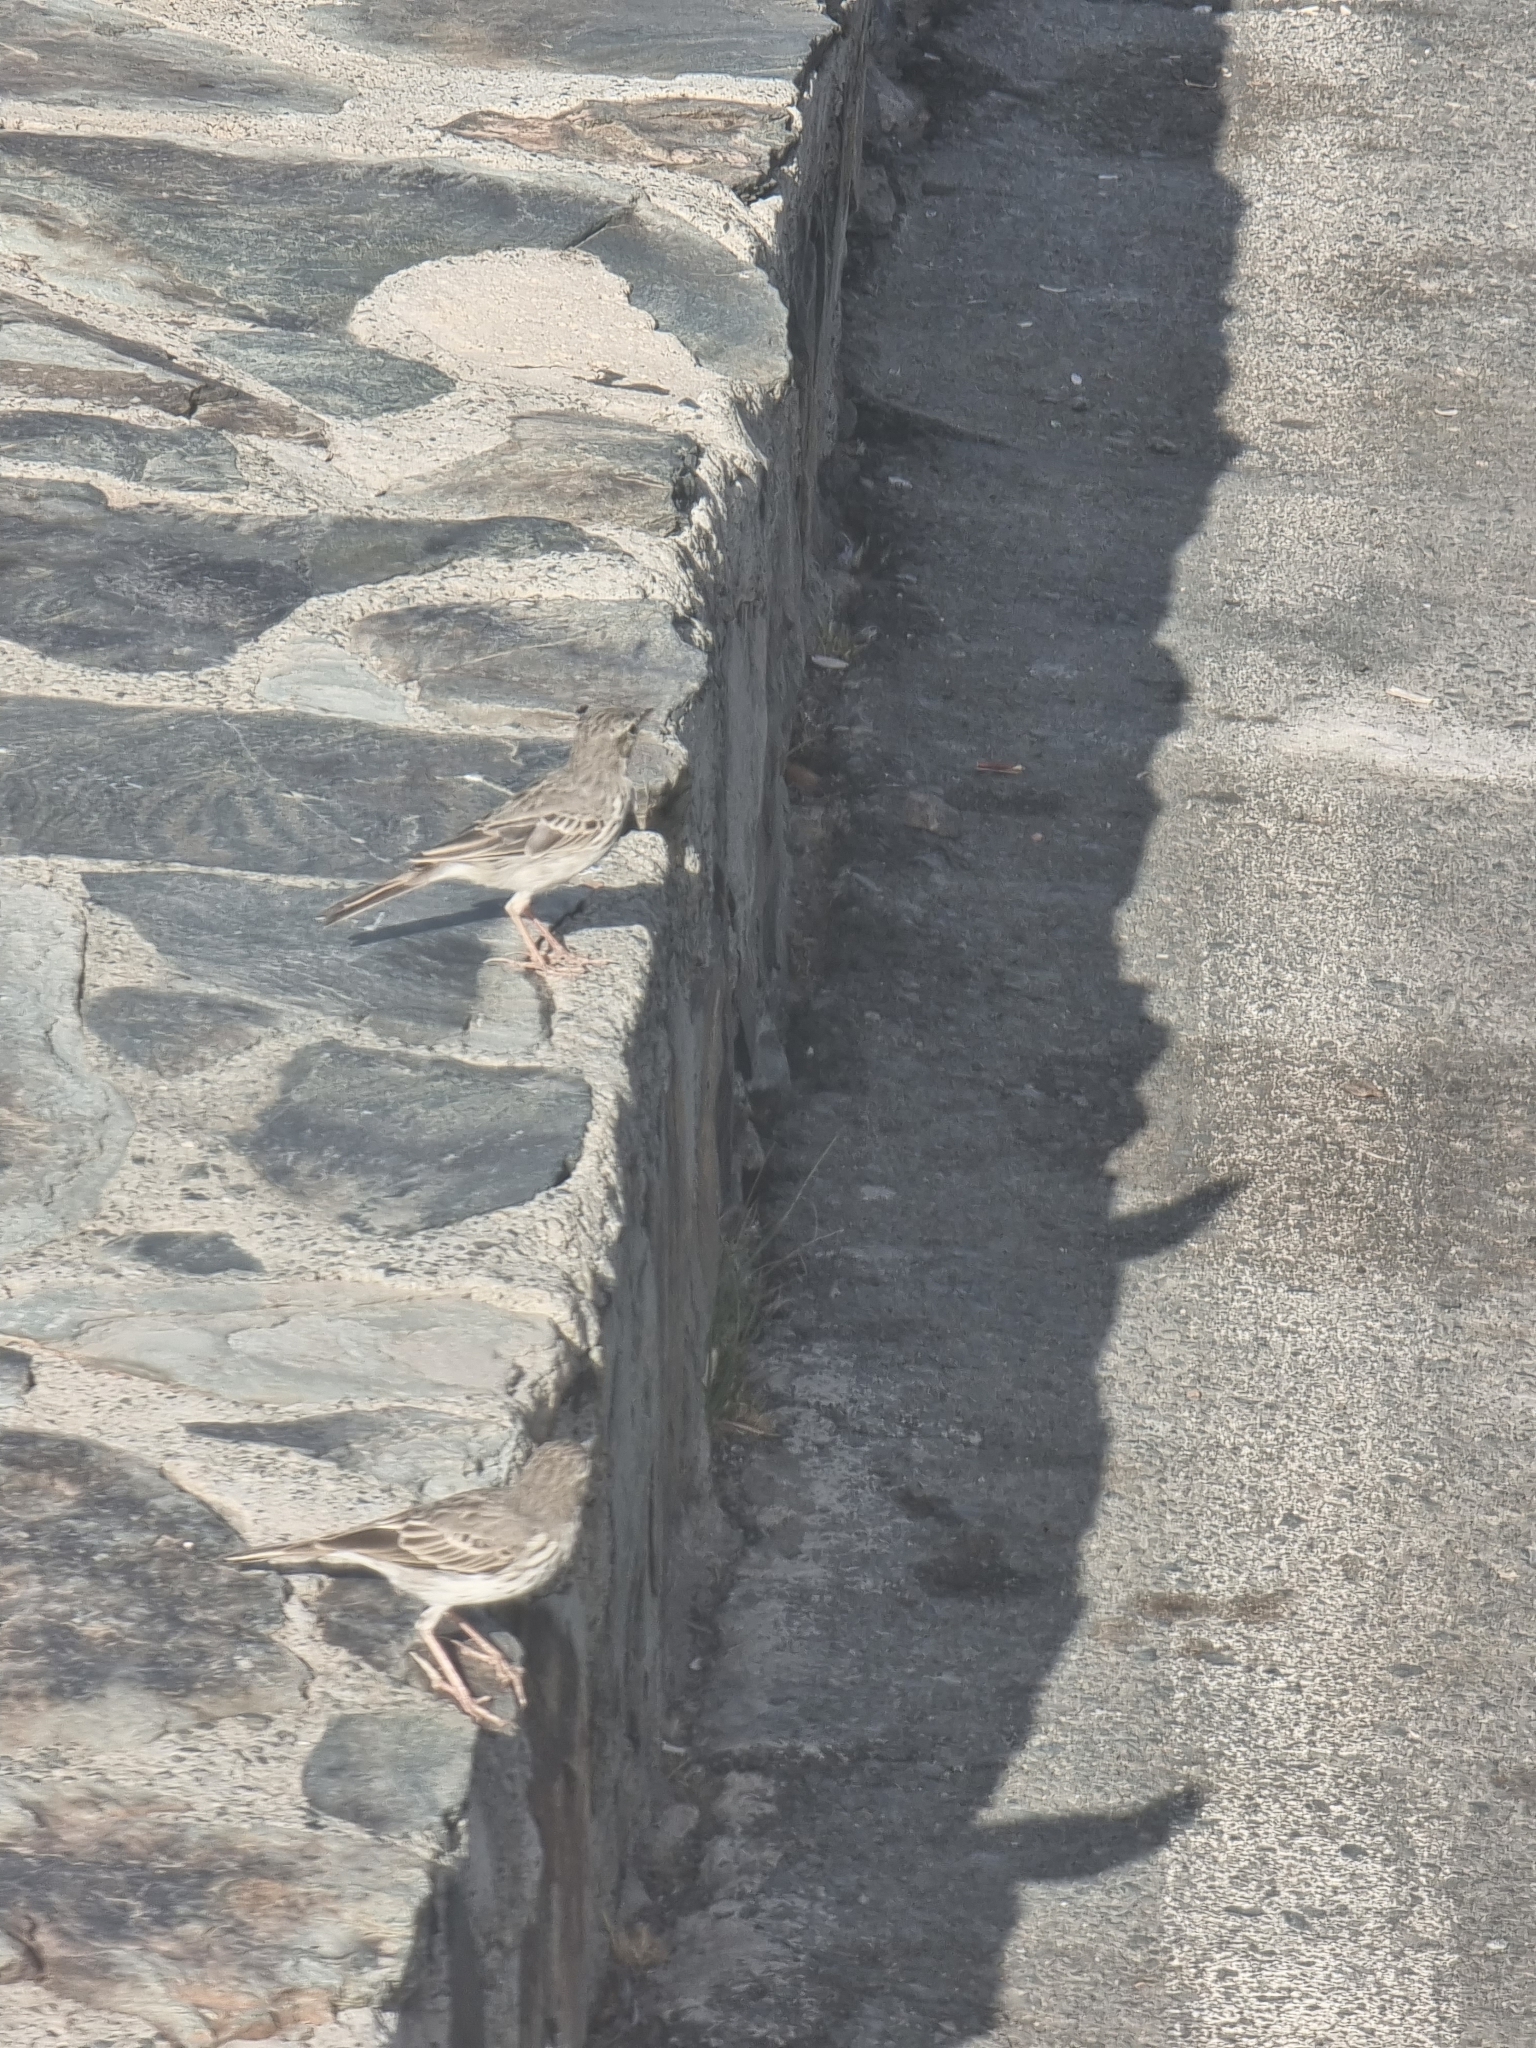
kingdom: Animalia
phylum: Chordata
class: Aves
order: Passeriformes
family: Motacillidae
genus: Anthus
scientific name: Anthus berthelotii
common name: Berthelot's pipit
